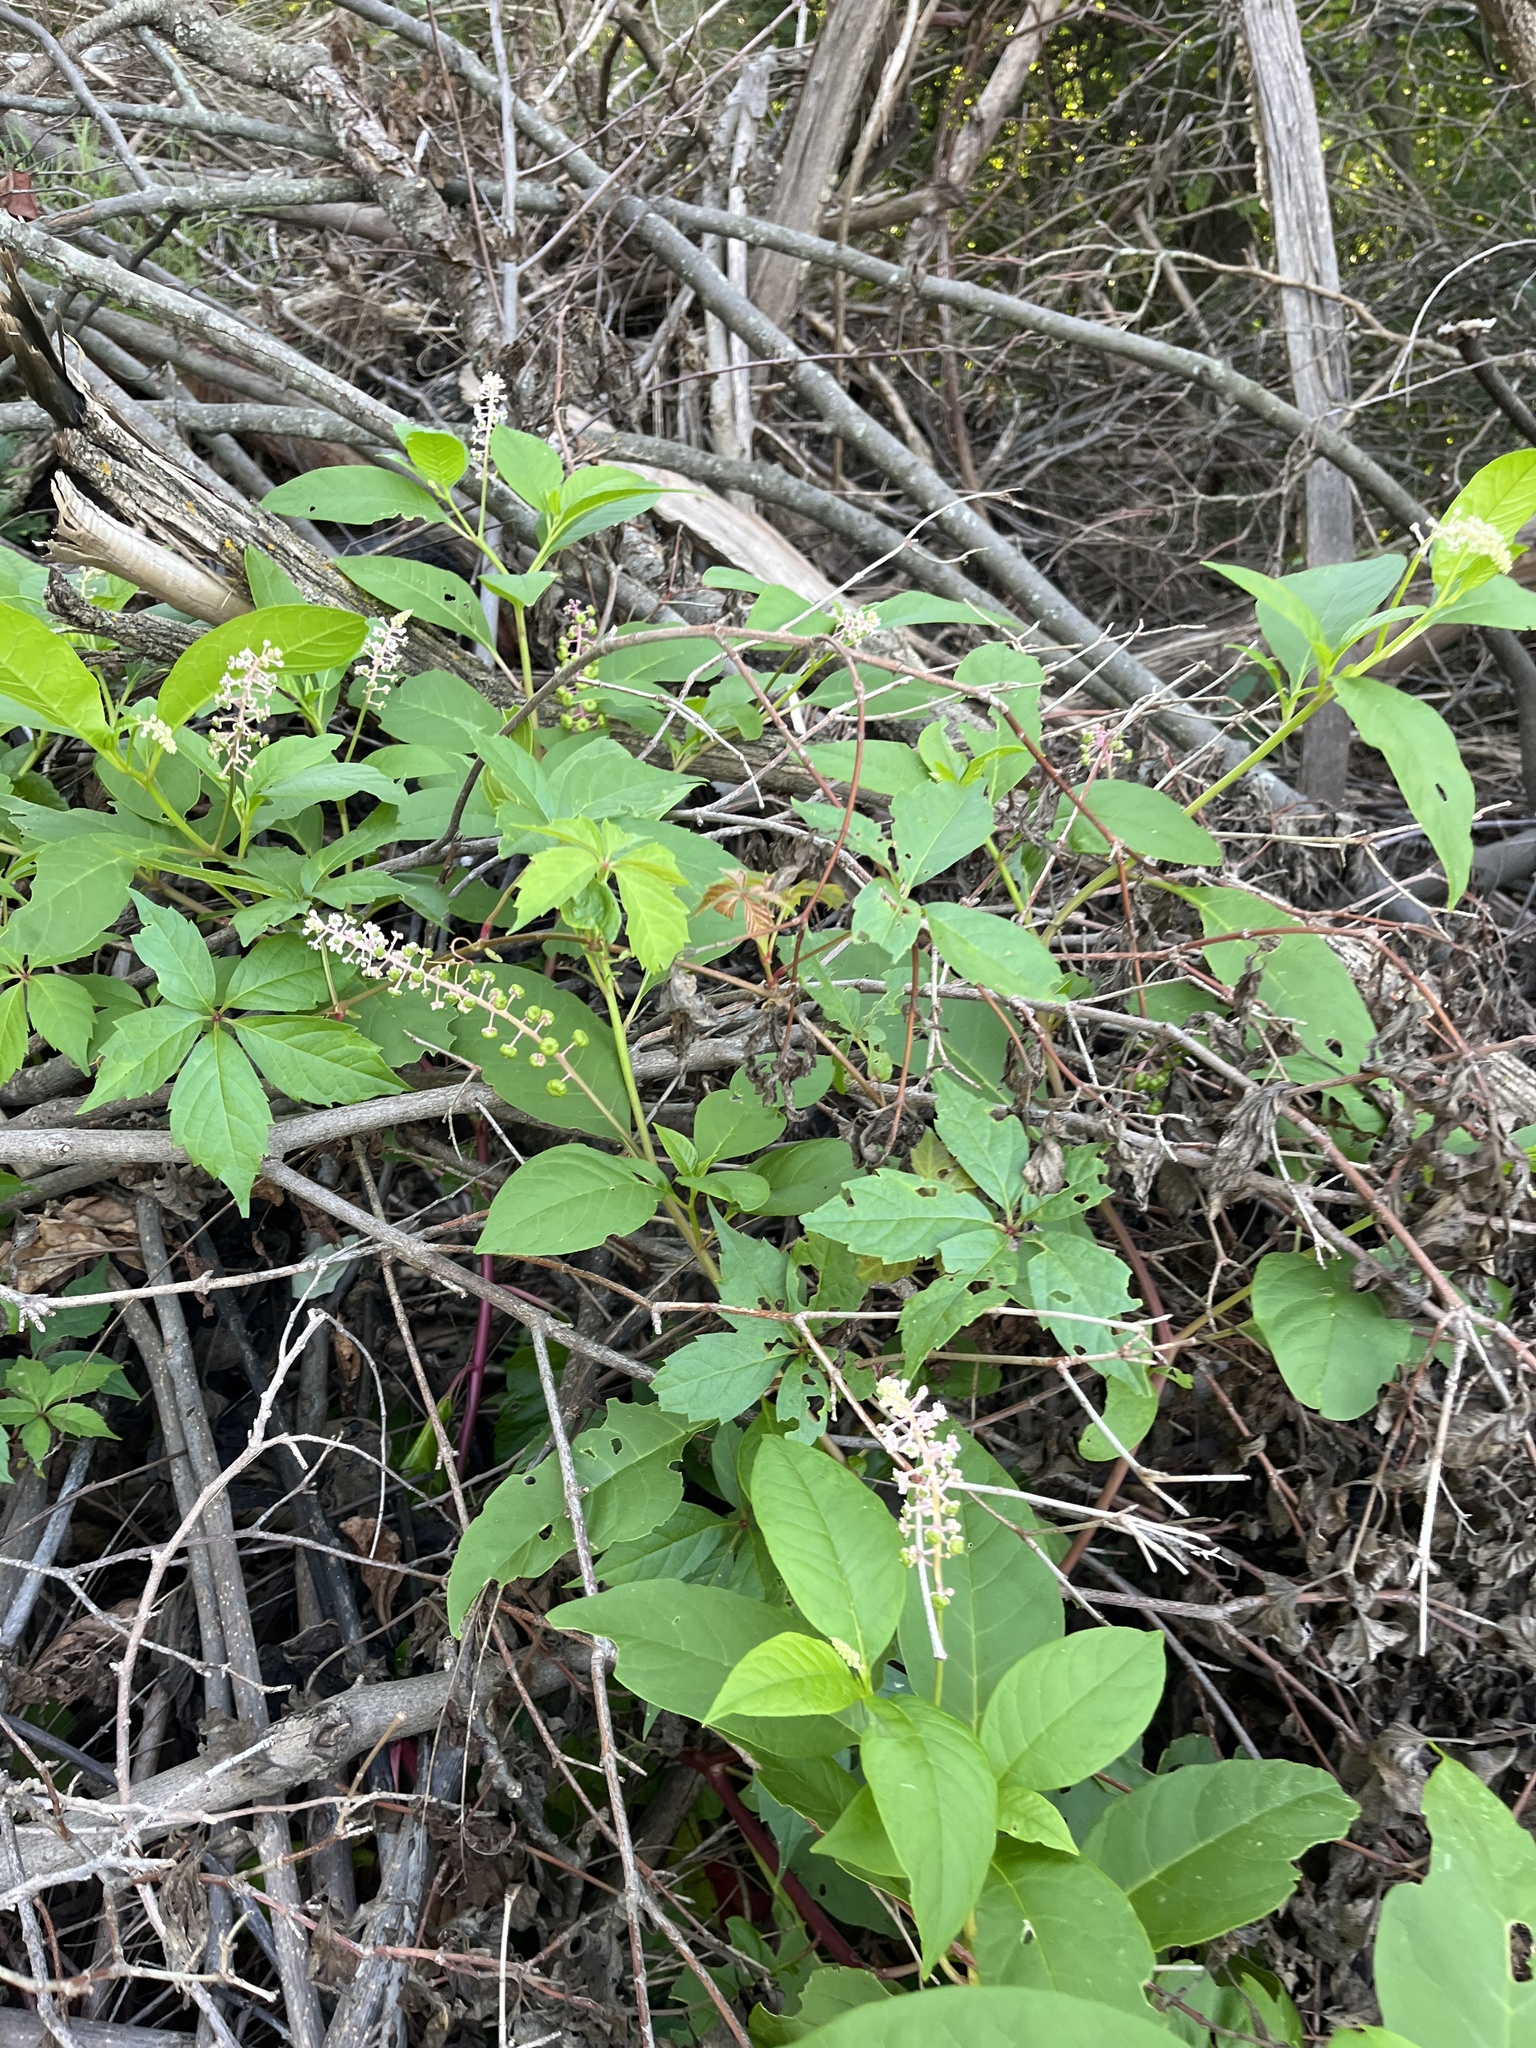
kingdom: Plantae
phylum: Tracheophyta
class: Magnoliopsida
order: Caryophyllales
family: Phytolaccaceae
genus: Phytolacca
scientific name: Phytolacca americana
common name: American pokeweed
